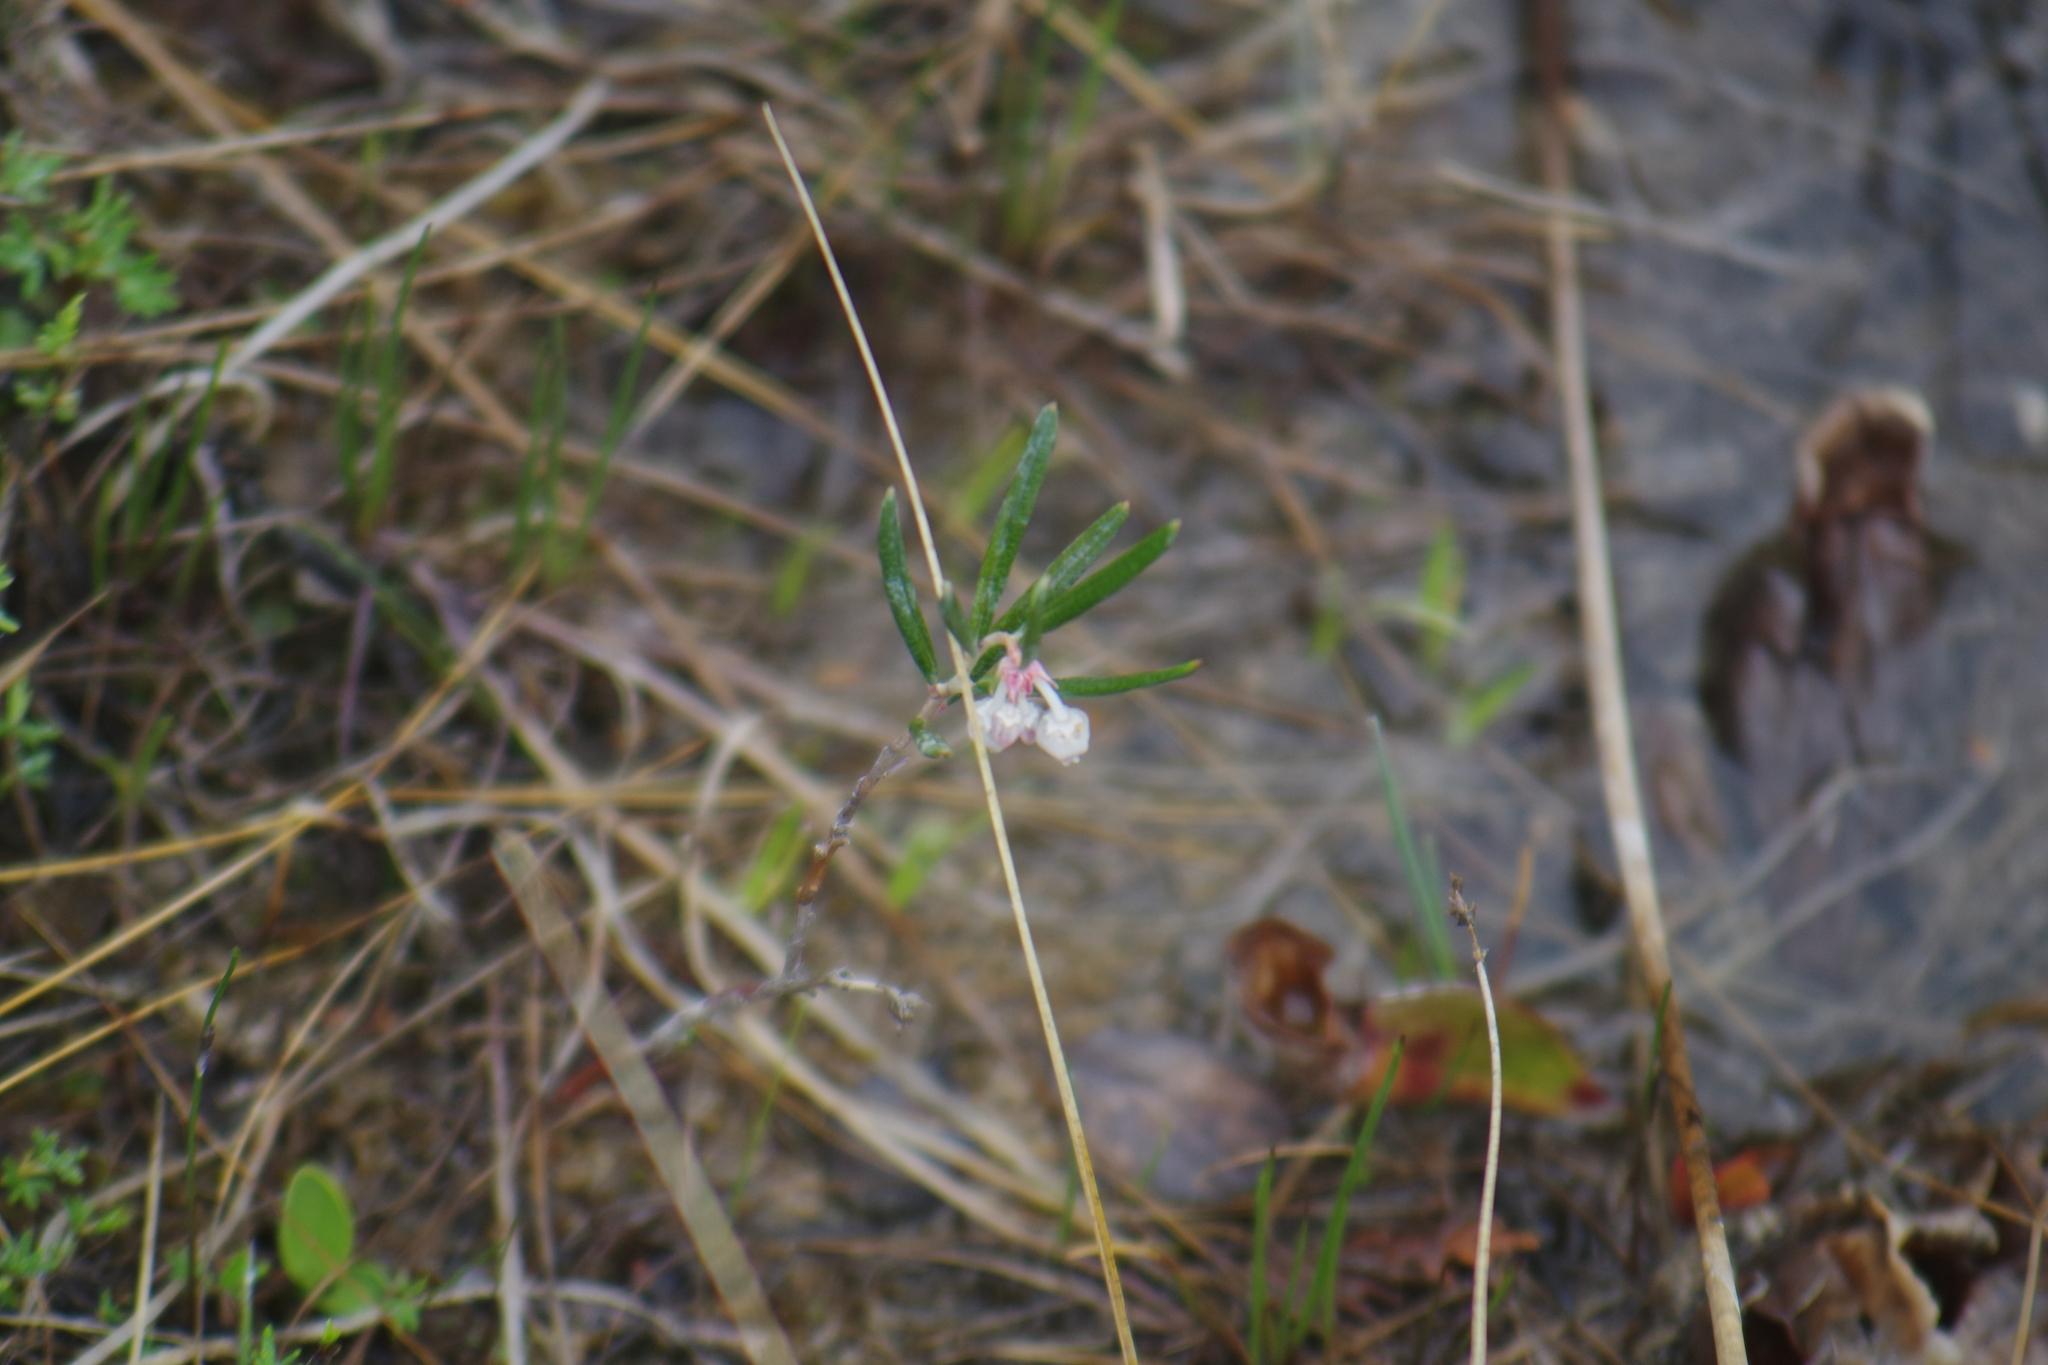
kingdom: Plantae
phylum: Tracheophyta
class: Magnoliopsida
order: Ericales
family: Ericaceae
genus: Andromeda
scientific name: Andromeda polifolia
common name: Bog-rosemary
